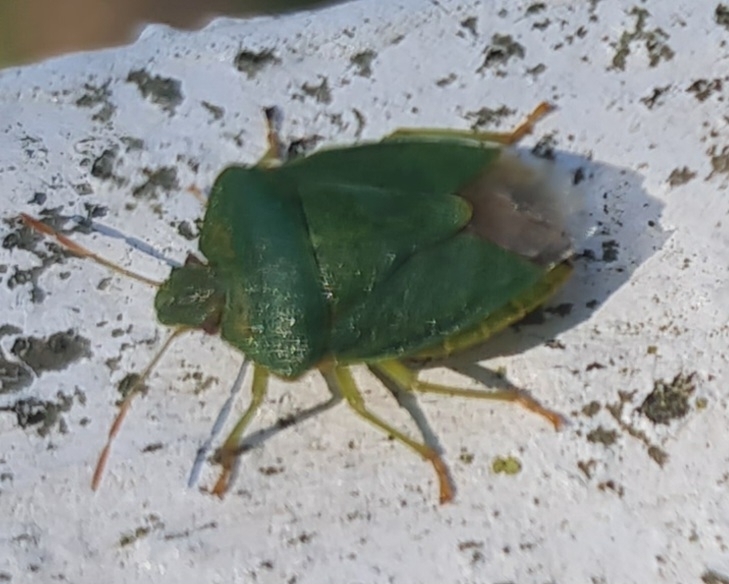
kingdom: Animalia
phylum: Arthropoda
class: Insecta
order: Hemiptera
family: Pentatomidae
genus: Palomena
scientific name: Palomena prasina
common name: Green shieldbug
